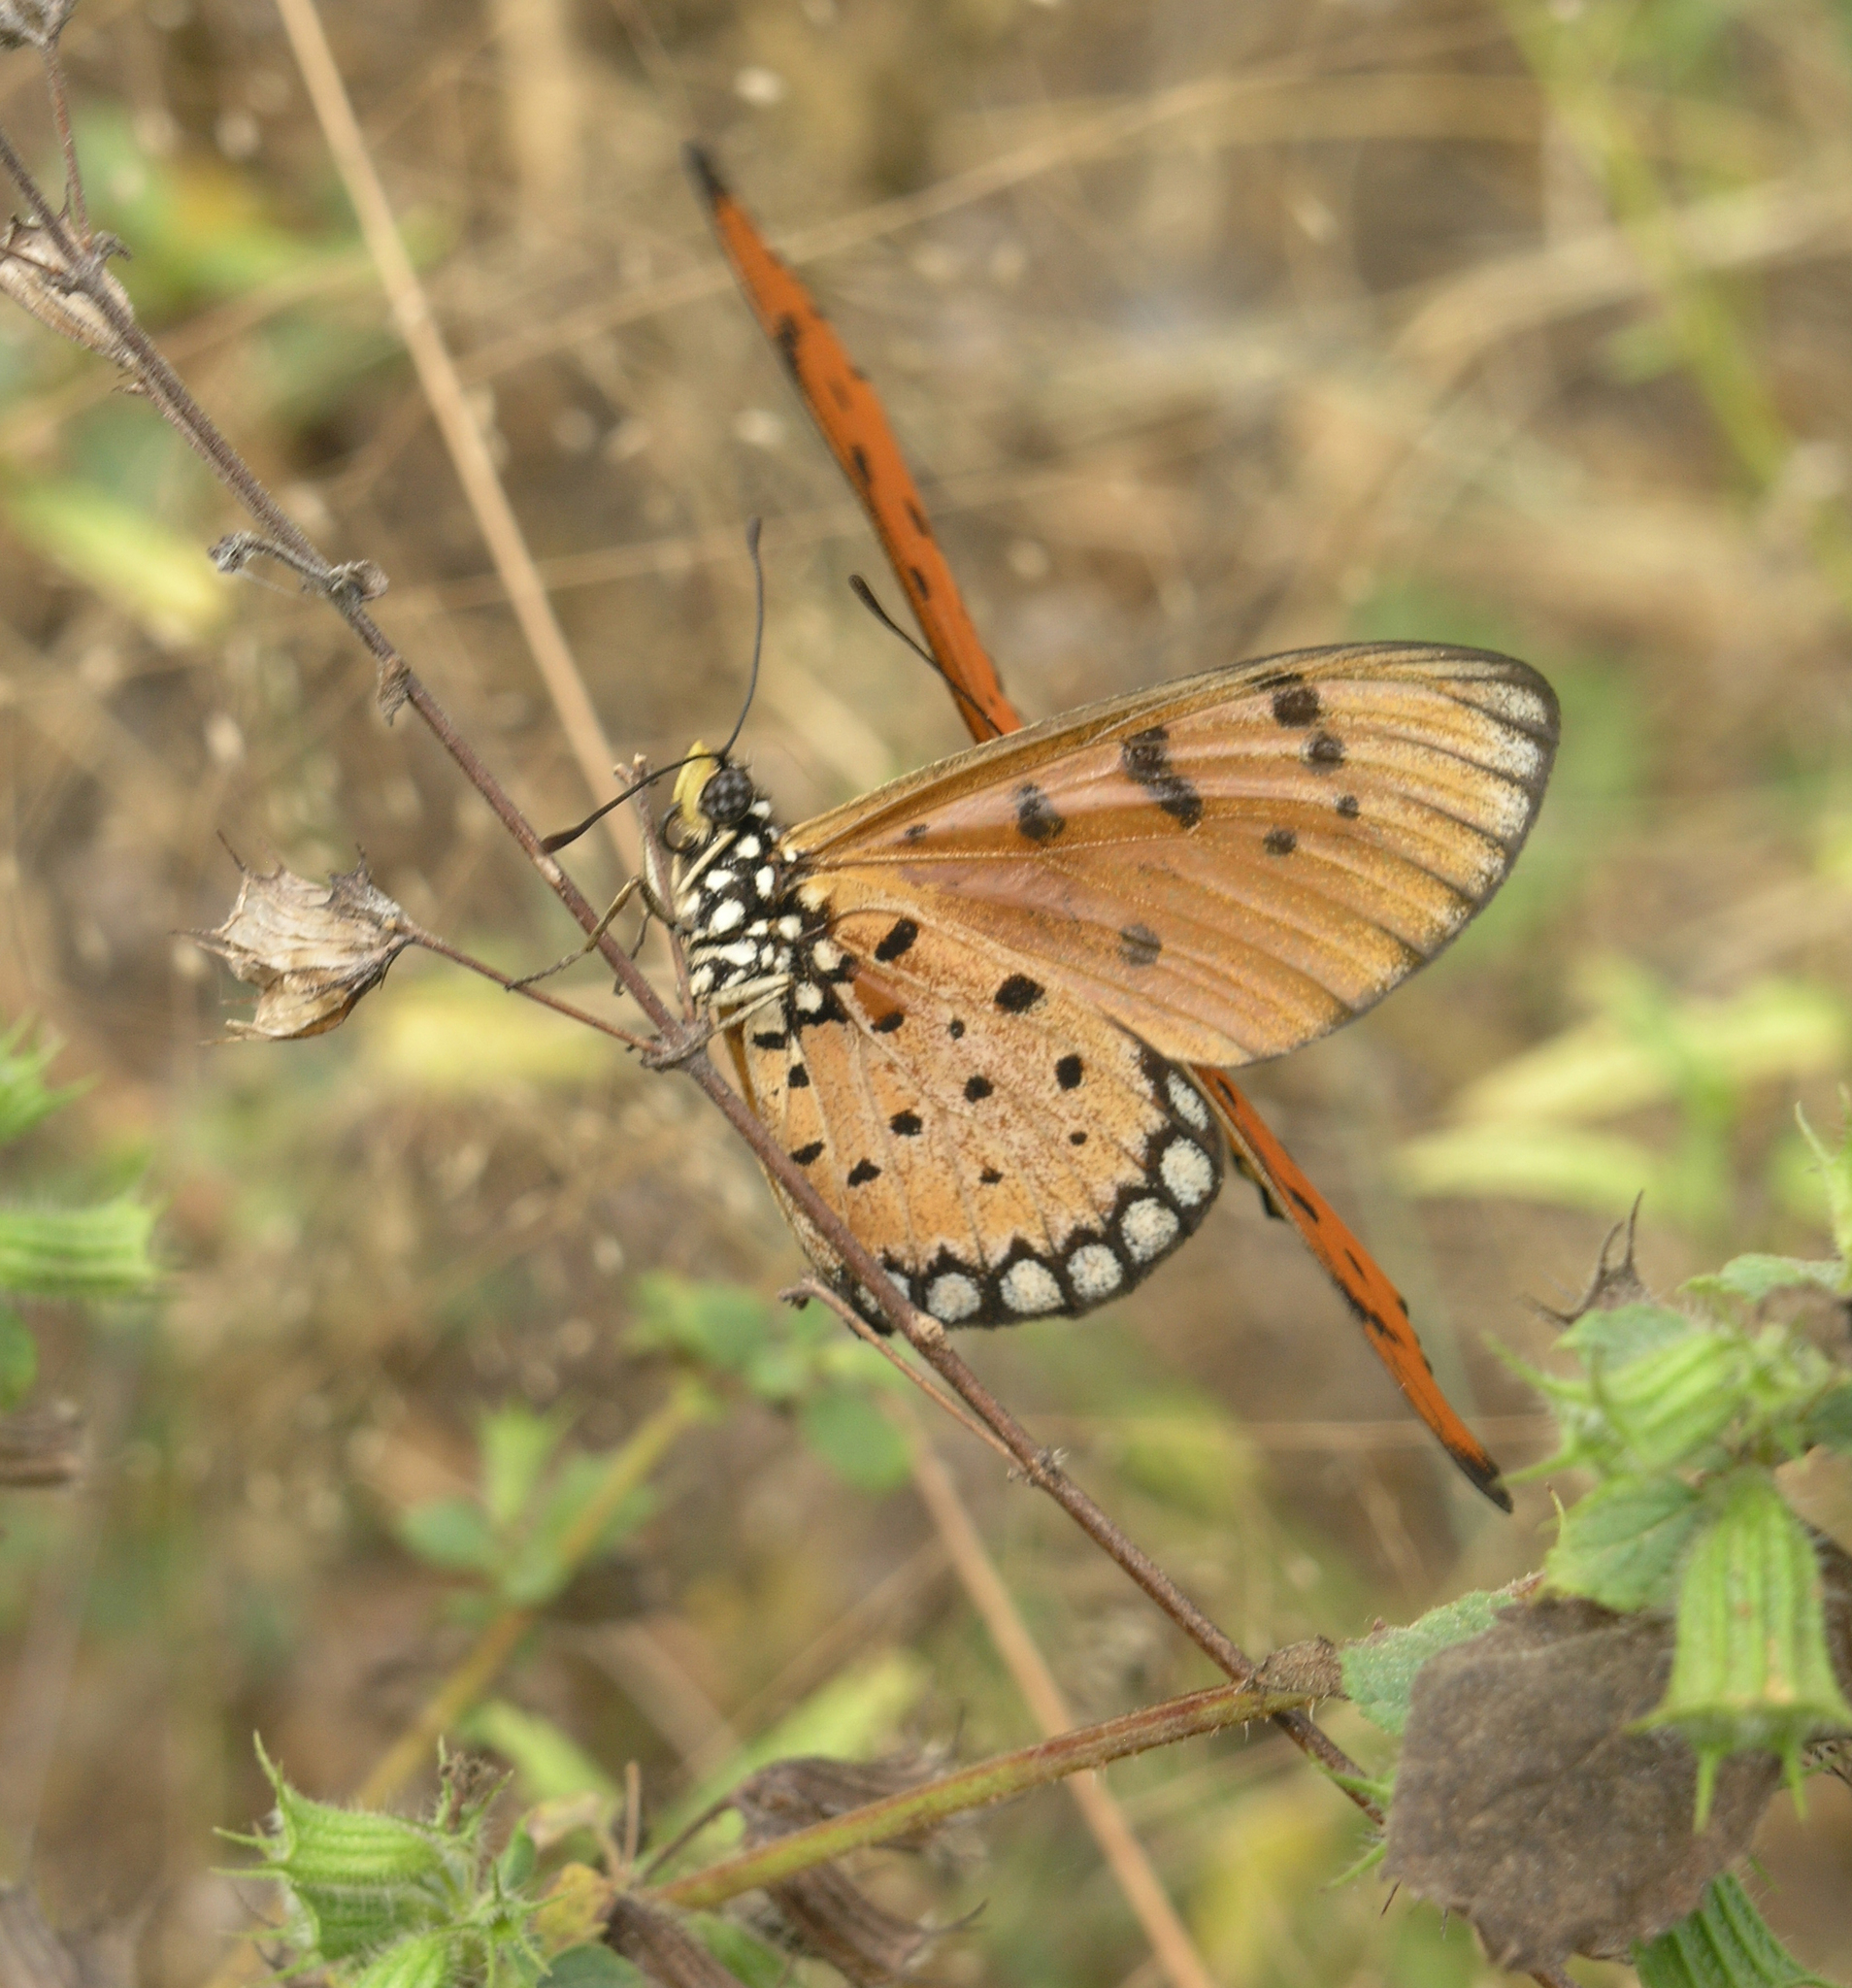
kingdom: Animalia
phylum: Arthropoda
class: Insecta
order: Lepidoptera
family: Nymphalidae
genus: Acraea
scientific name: Acraea terpsicore
